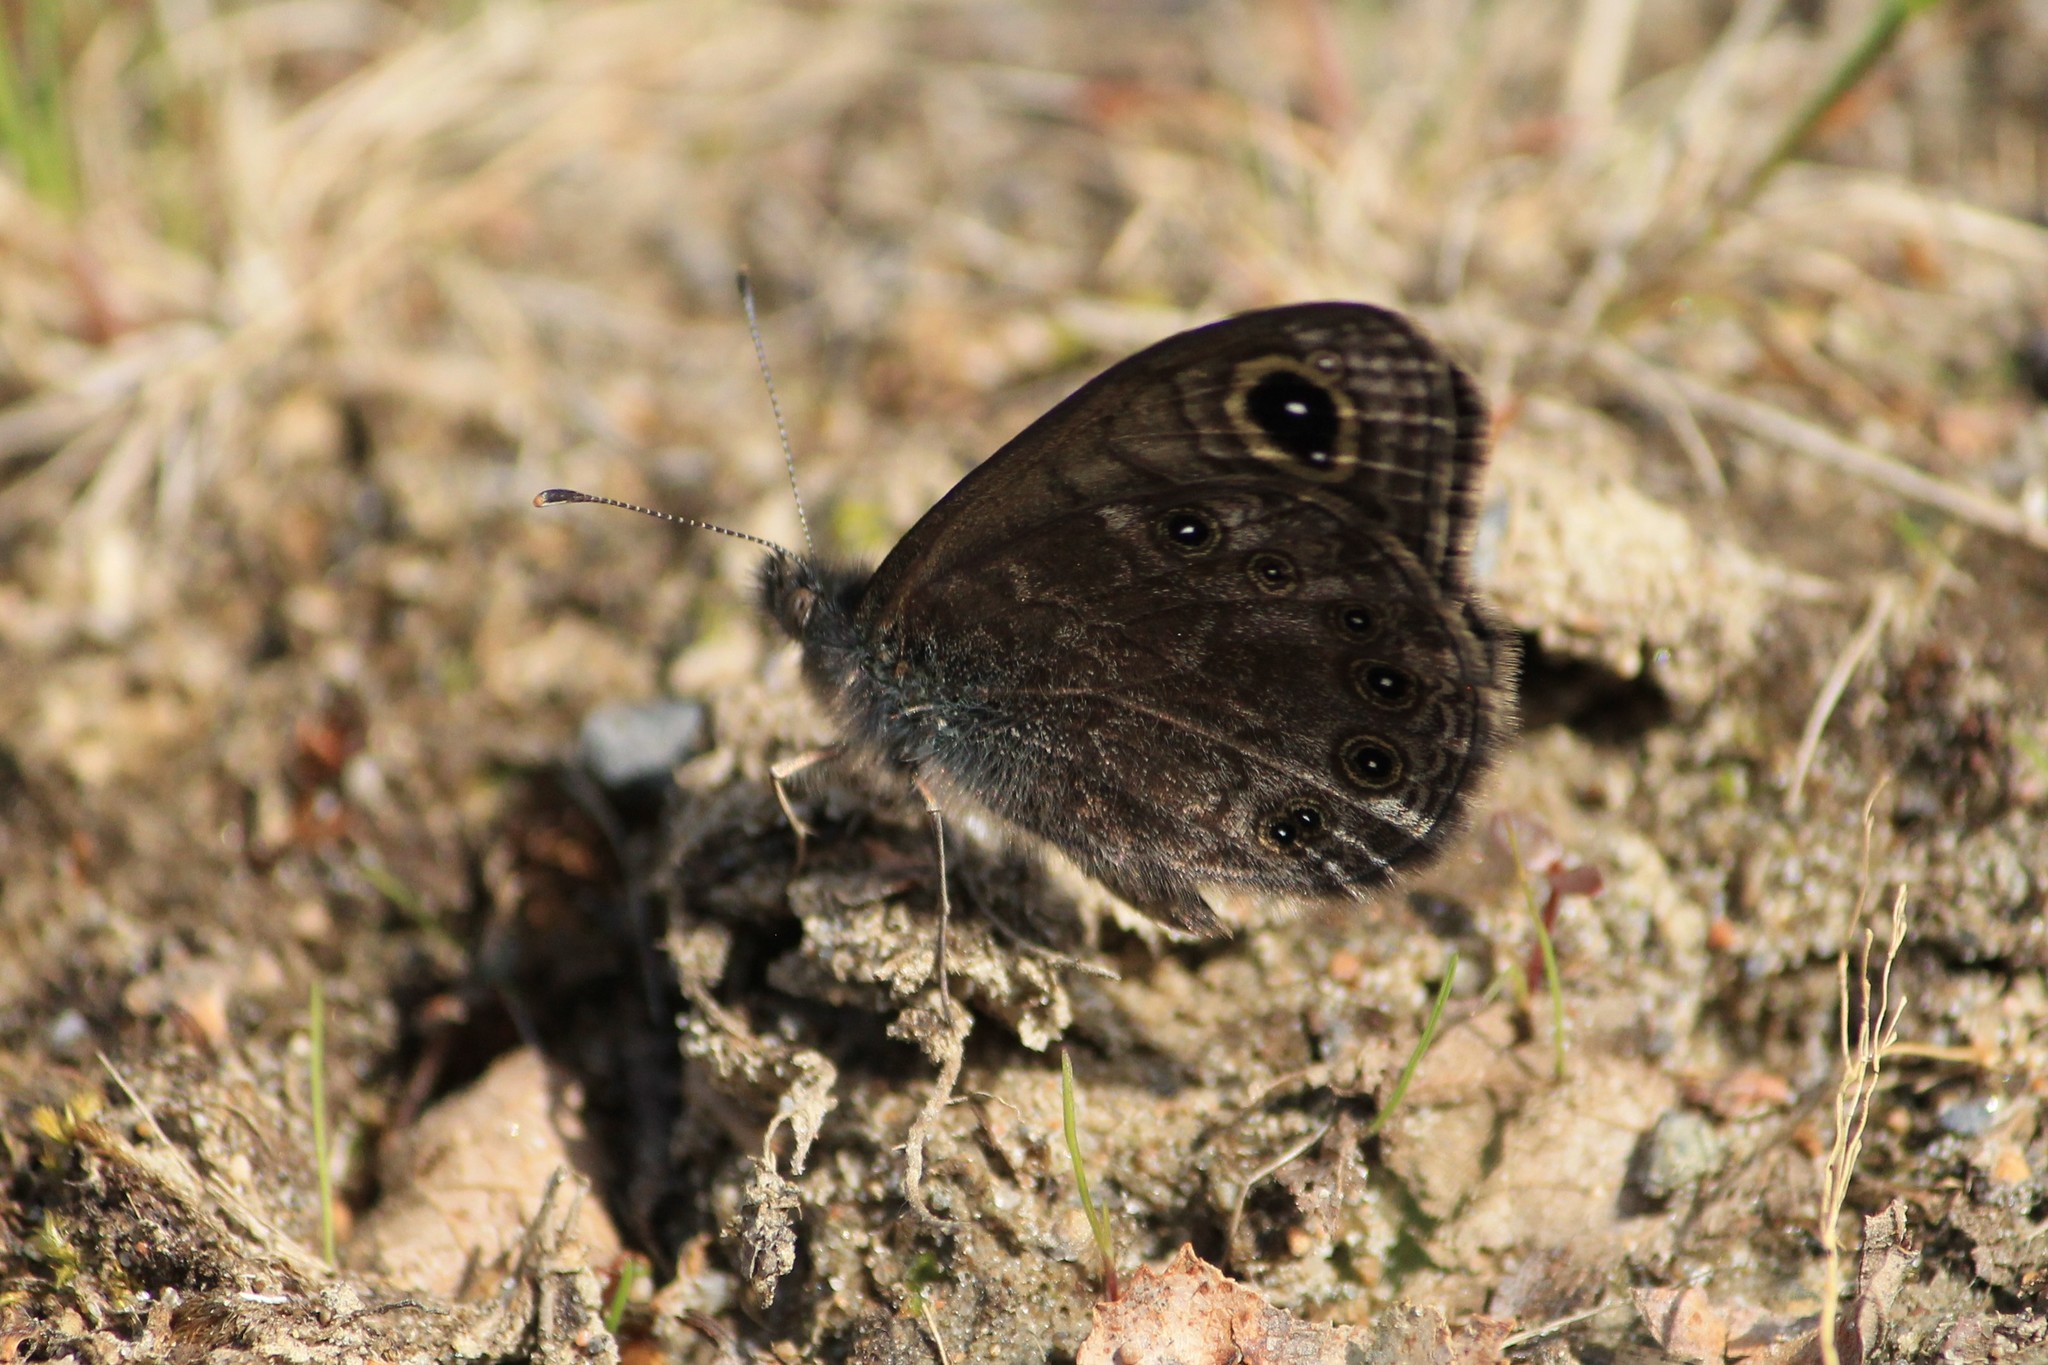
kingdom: Animalia
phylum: Arthropoda
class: Insecta
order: Lepidoptera
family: Nymphalidae
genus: Pararge
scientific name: Pararge petropolitana
